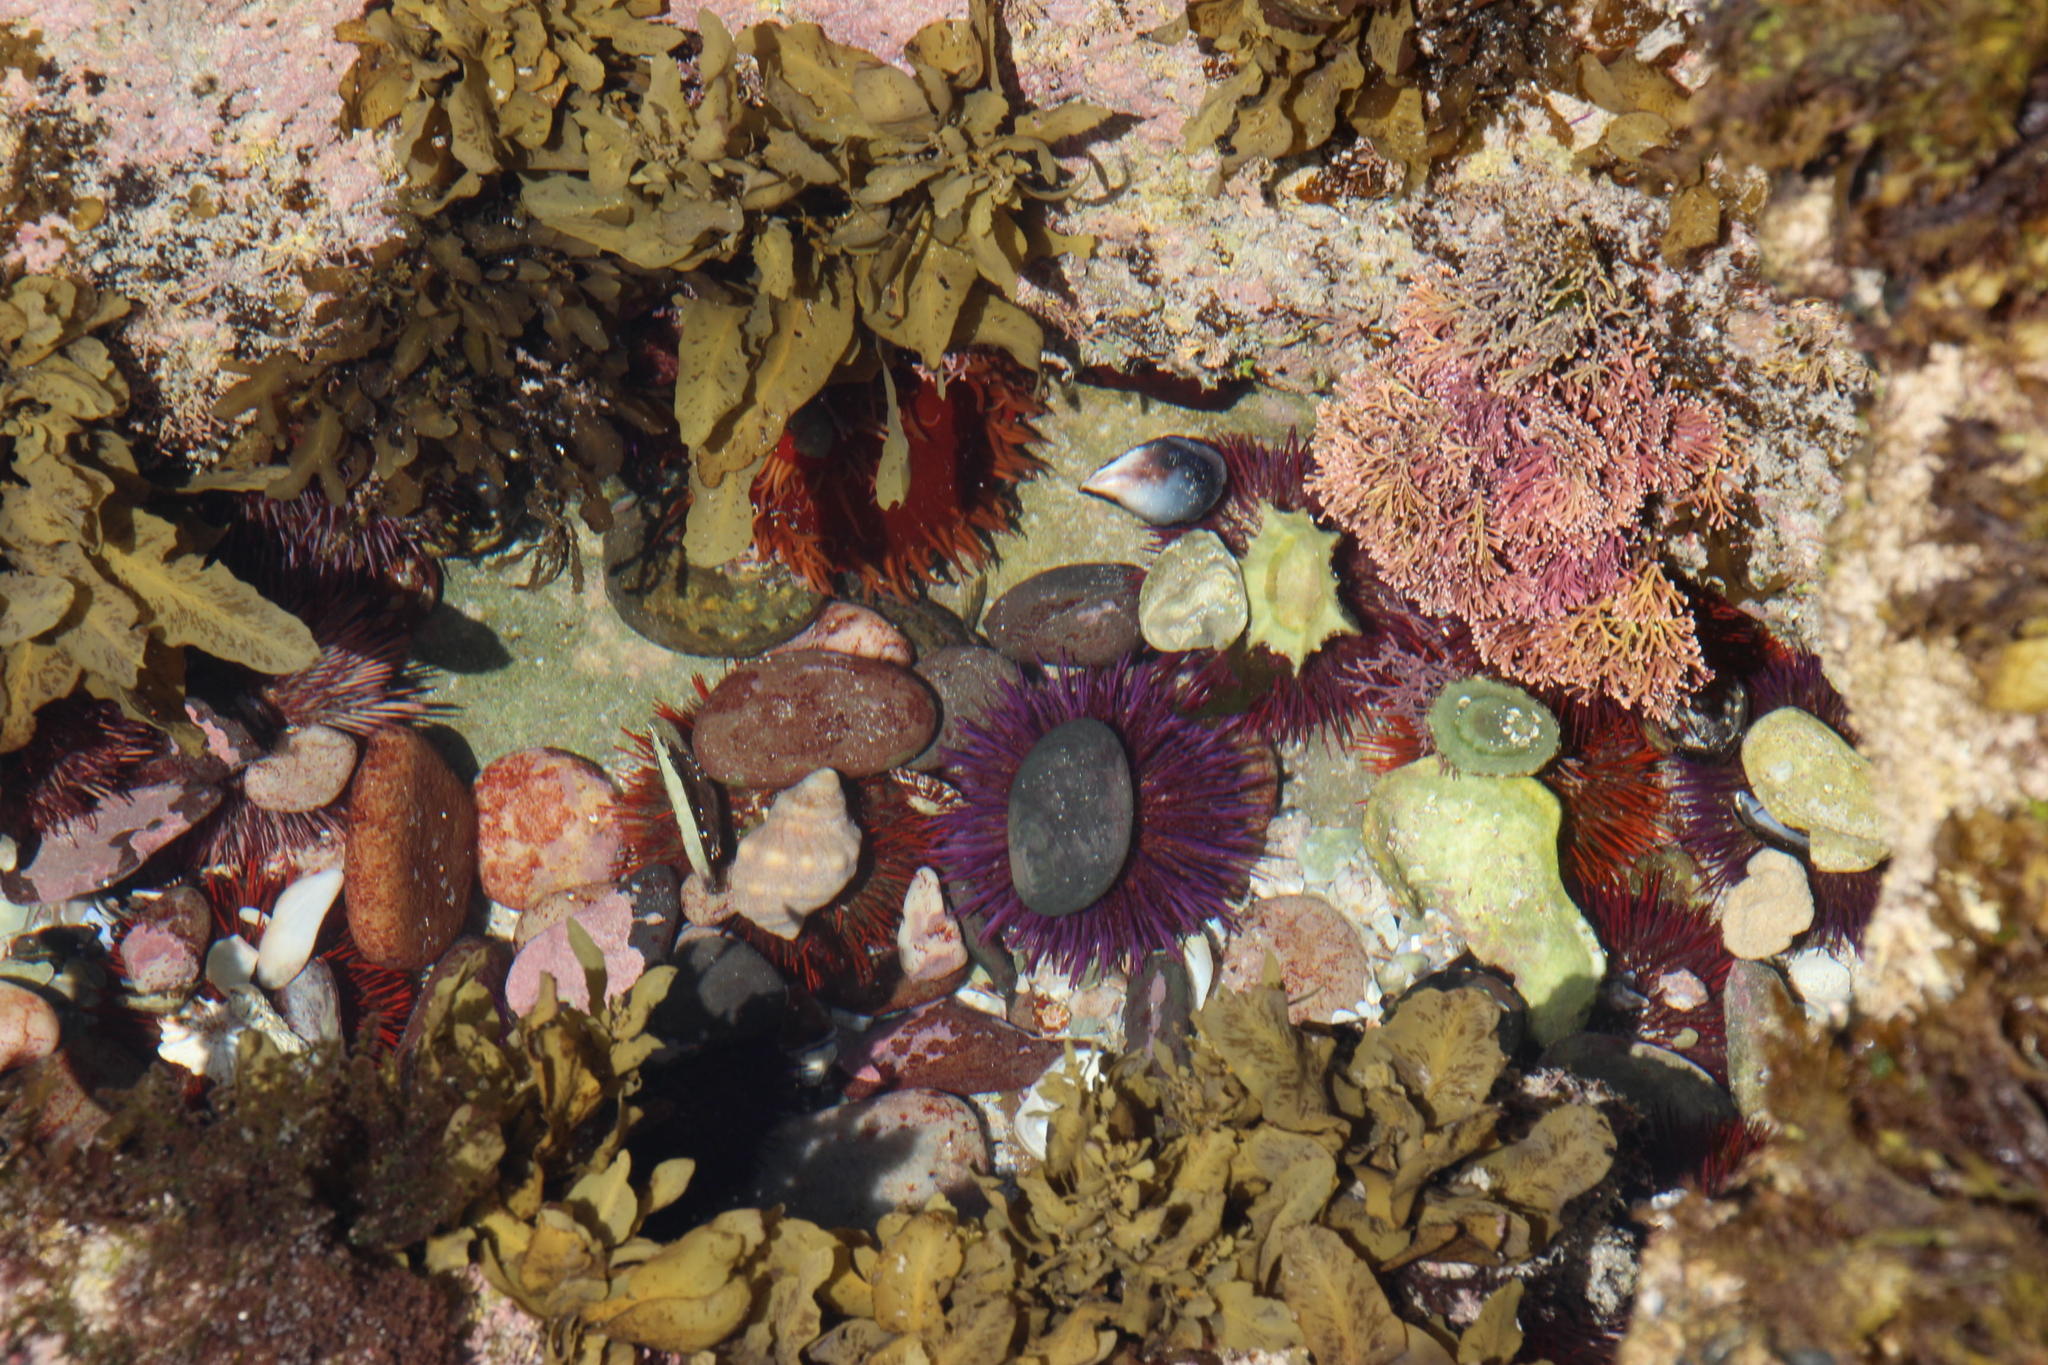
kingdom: Animalia
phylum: Echinodermata
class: Echinoidea
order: Camarodonta
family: Parechinidae
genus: Parechinus
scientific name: Parechinus angulosus
